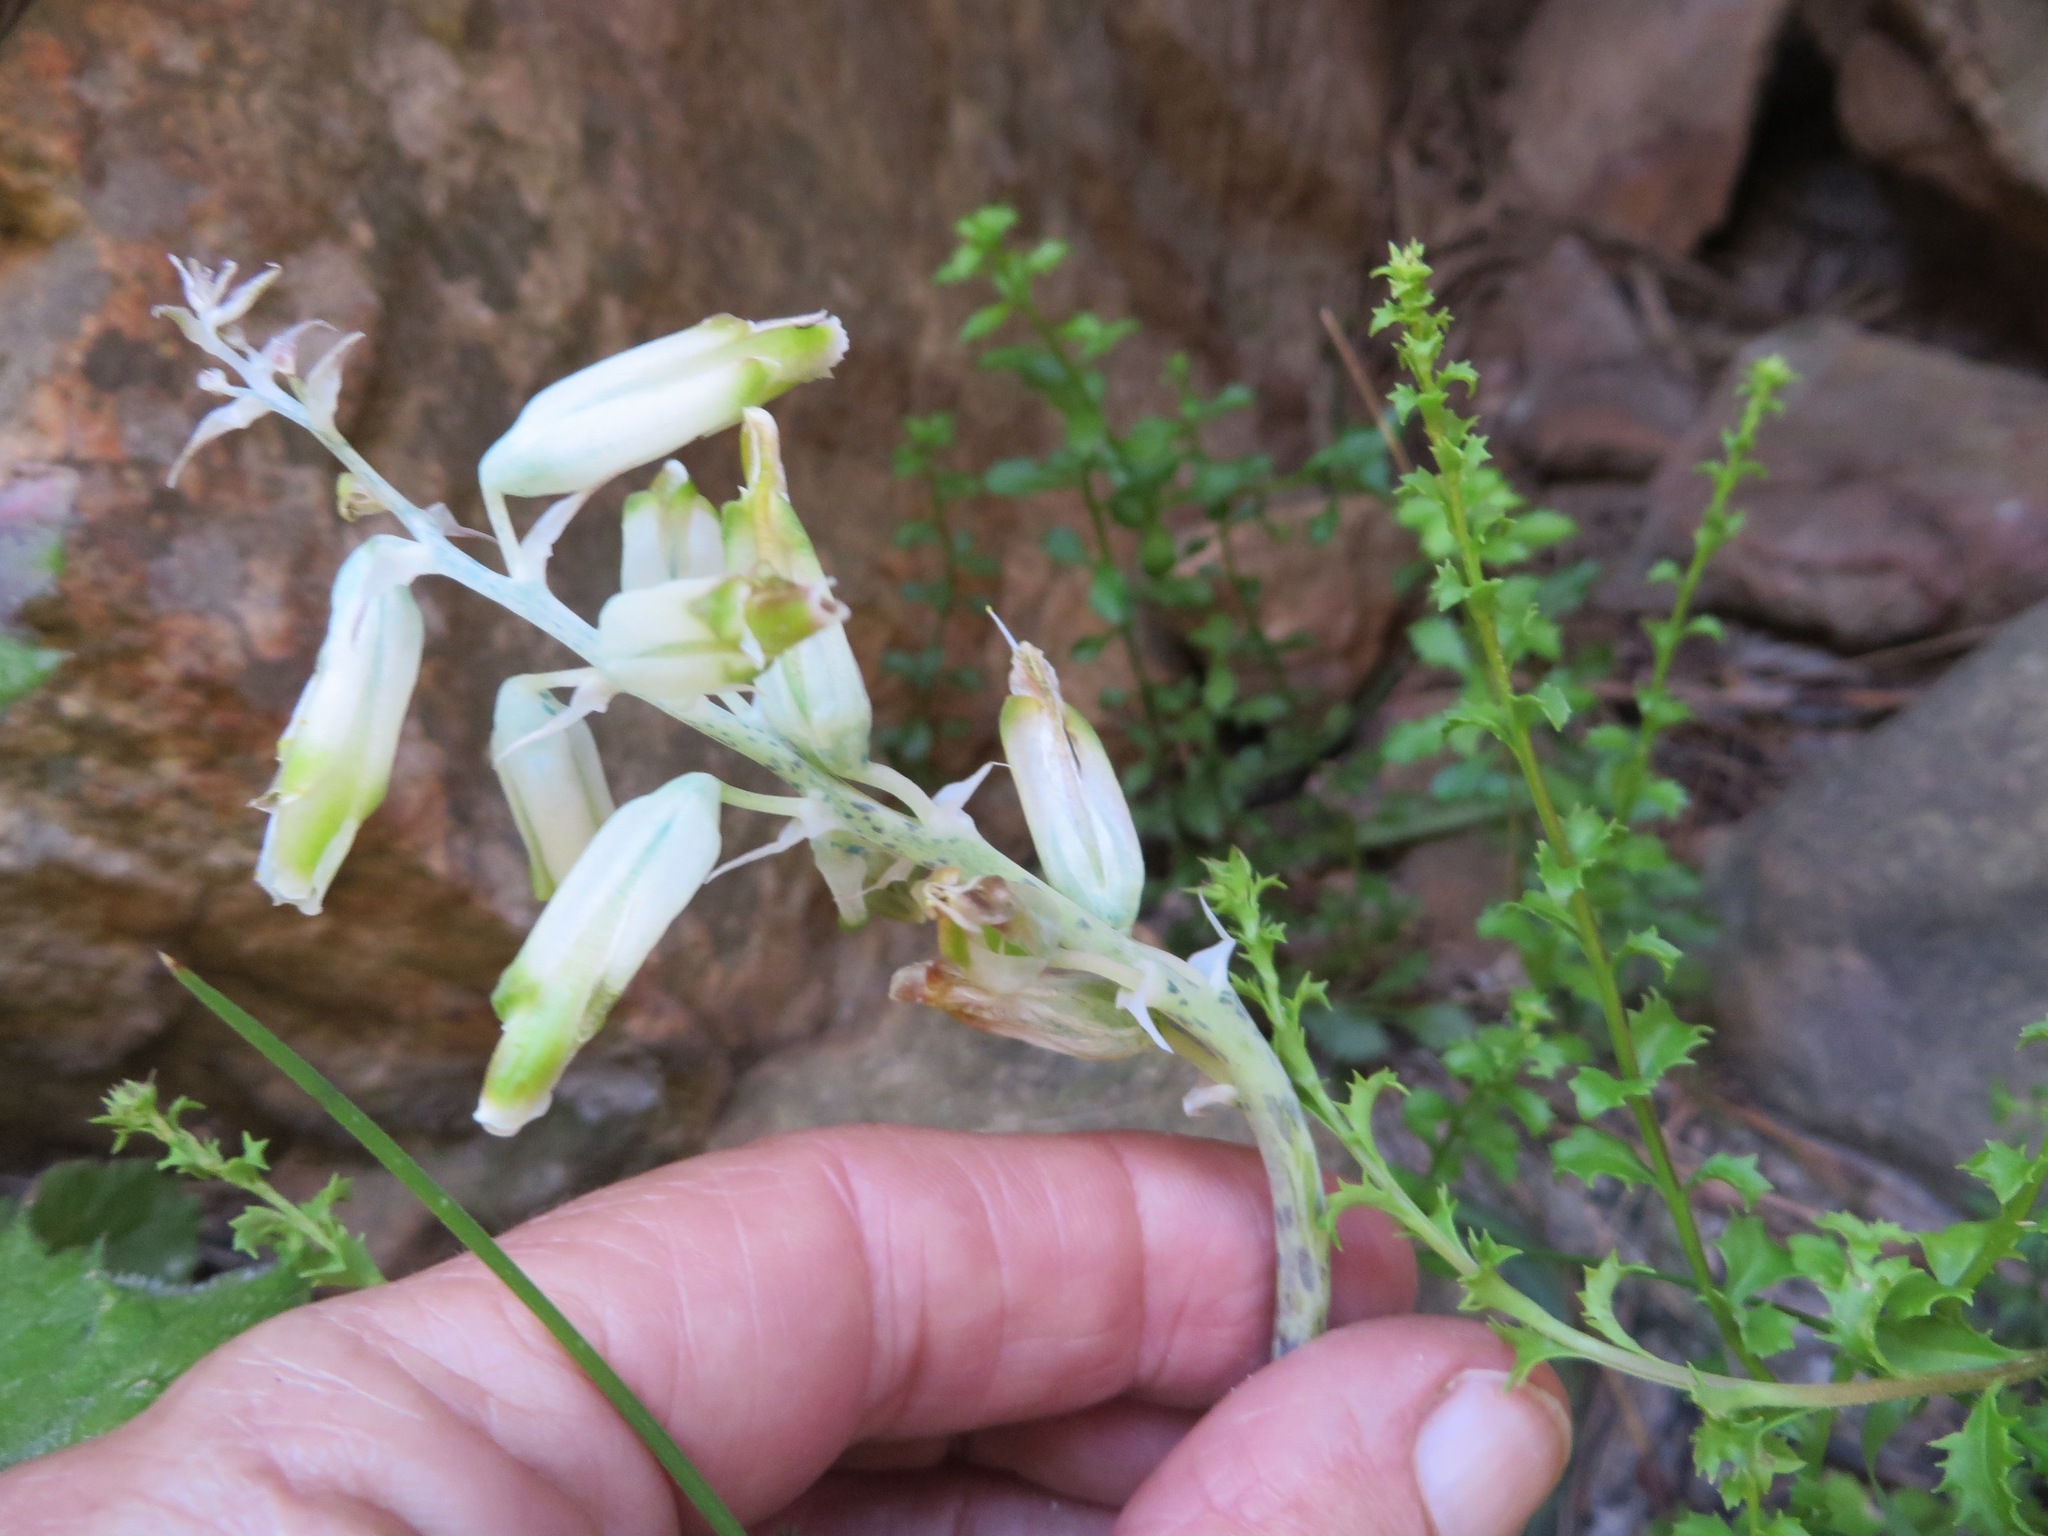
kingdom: Plantae
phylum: Tracheophyta
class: Liliopsida
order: Asparagales
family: Asparagaceae
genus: Lachenalia
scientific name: Lachenalia vanzyliae
